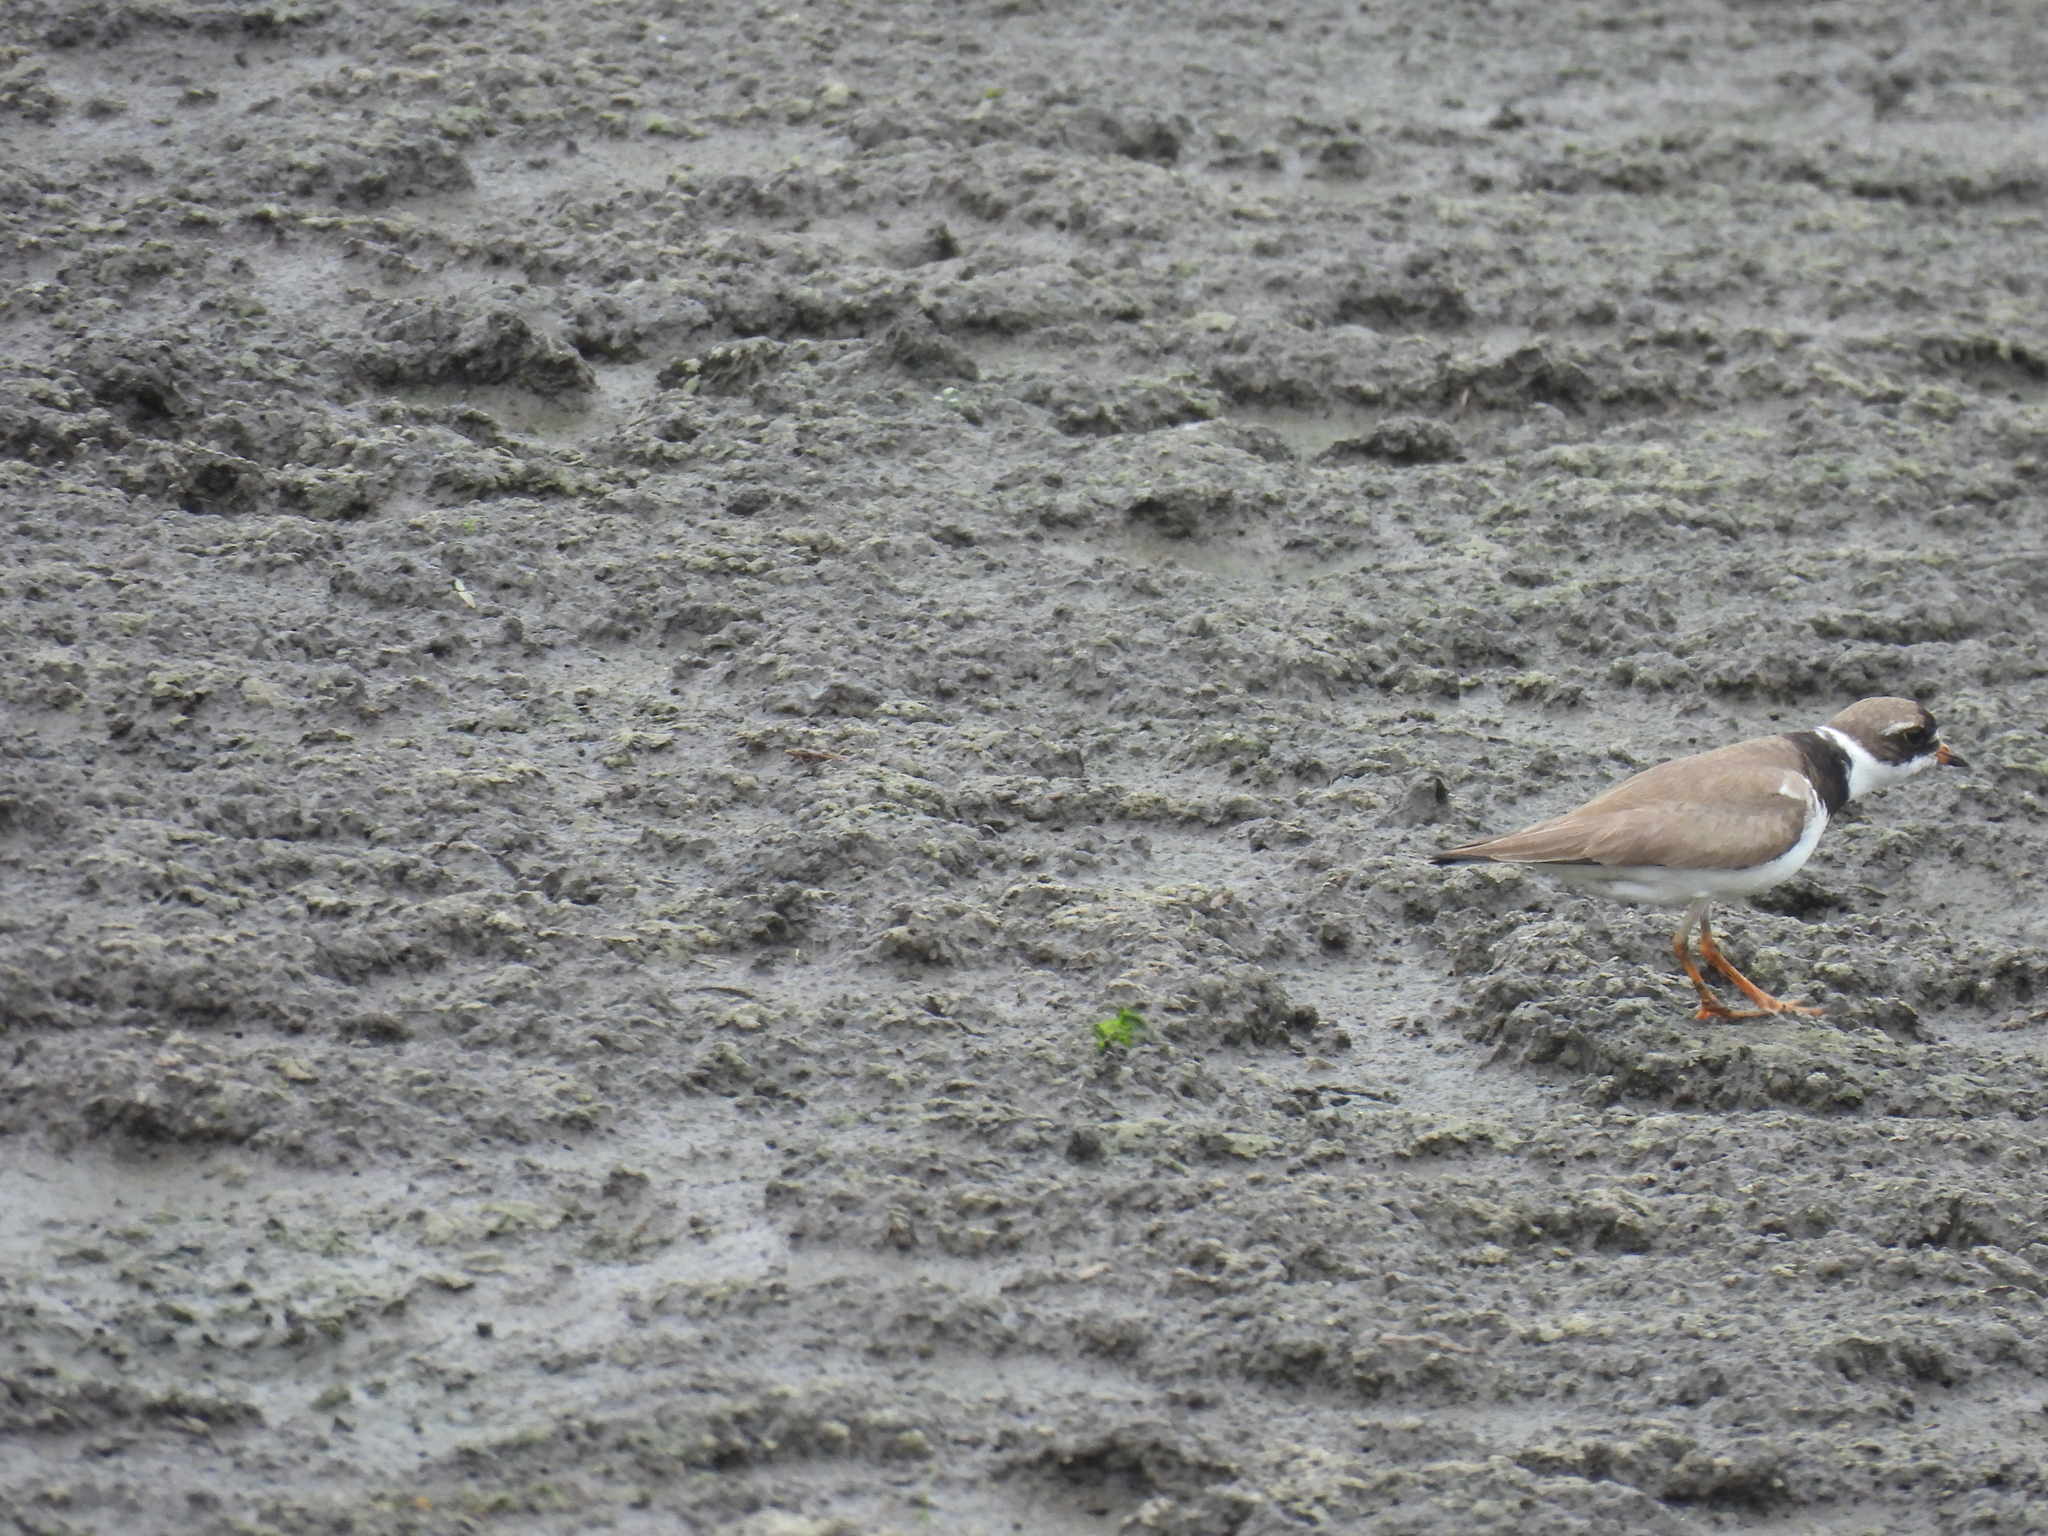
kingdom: Animalia
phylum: Chordata
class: Aves
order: Charadriiformes
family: Charadriidae
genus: Charadrius
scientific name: Charadrius semipalmatus
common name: Semipalmated plover
